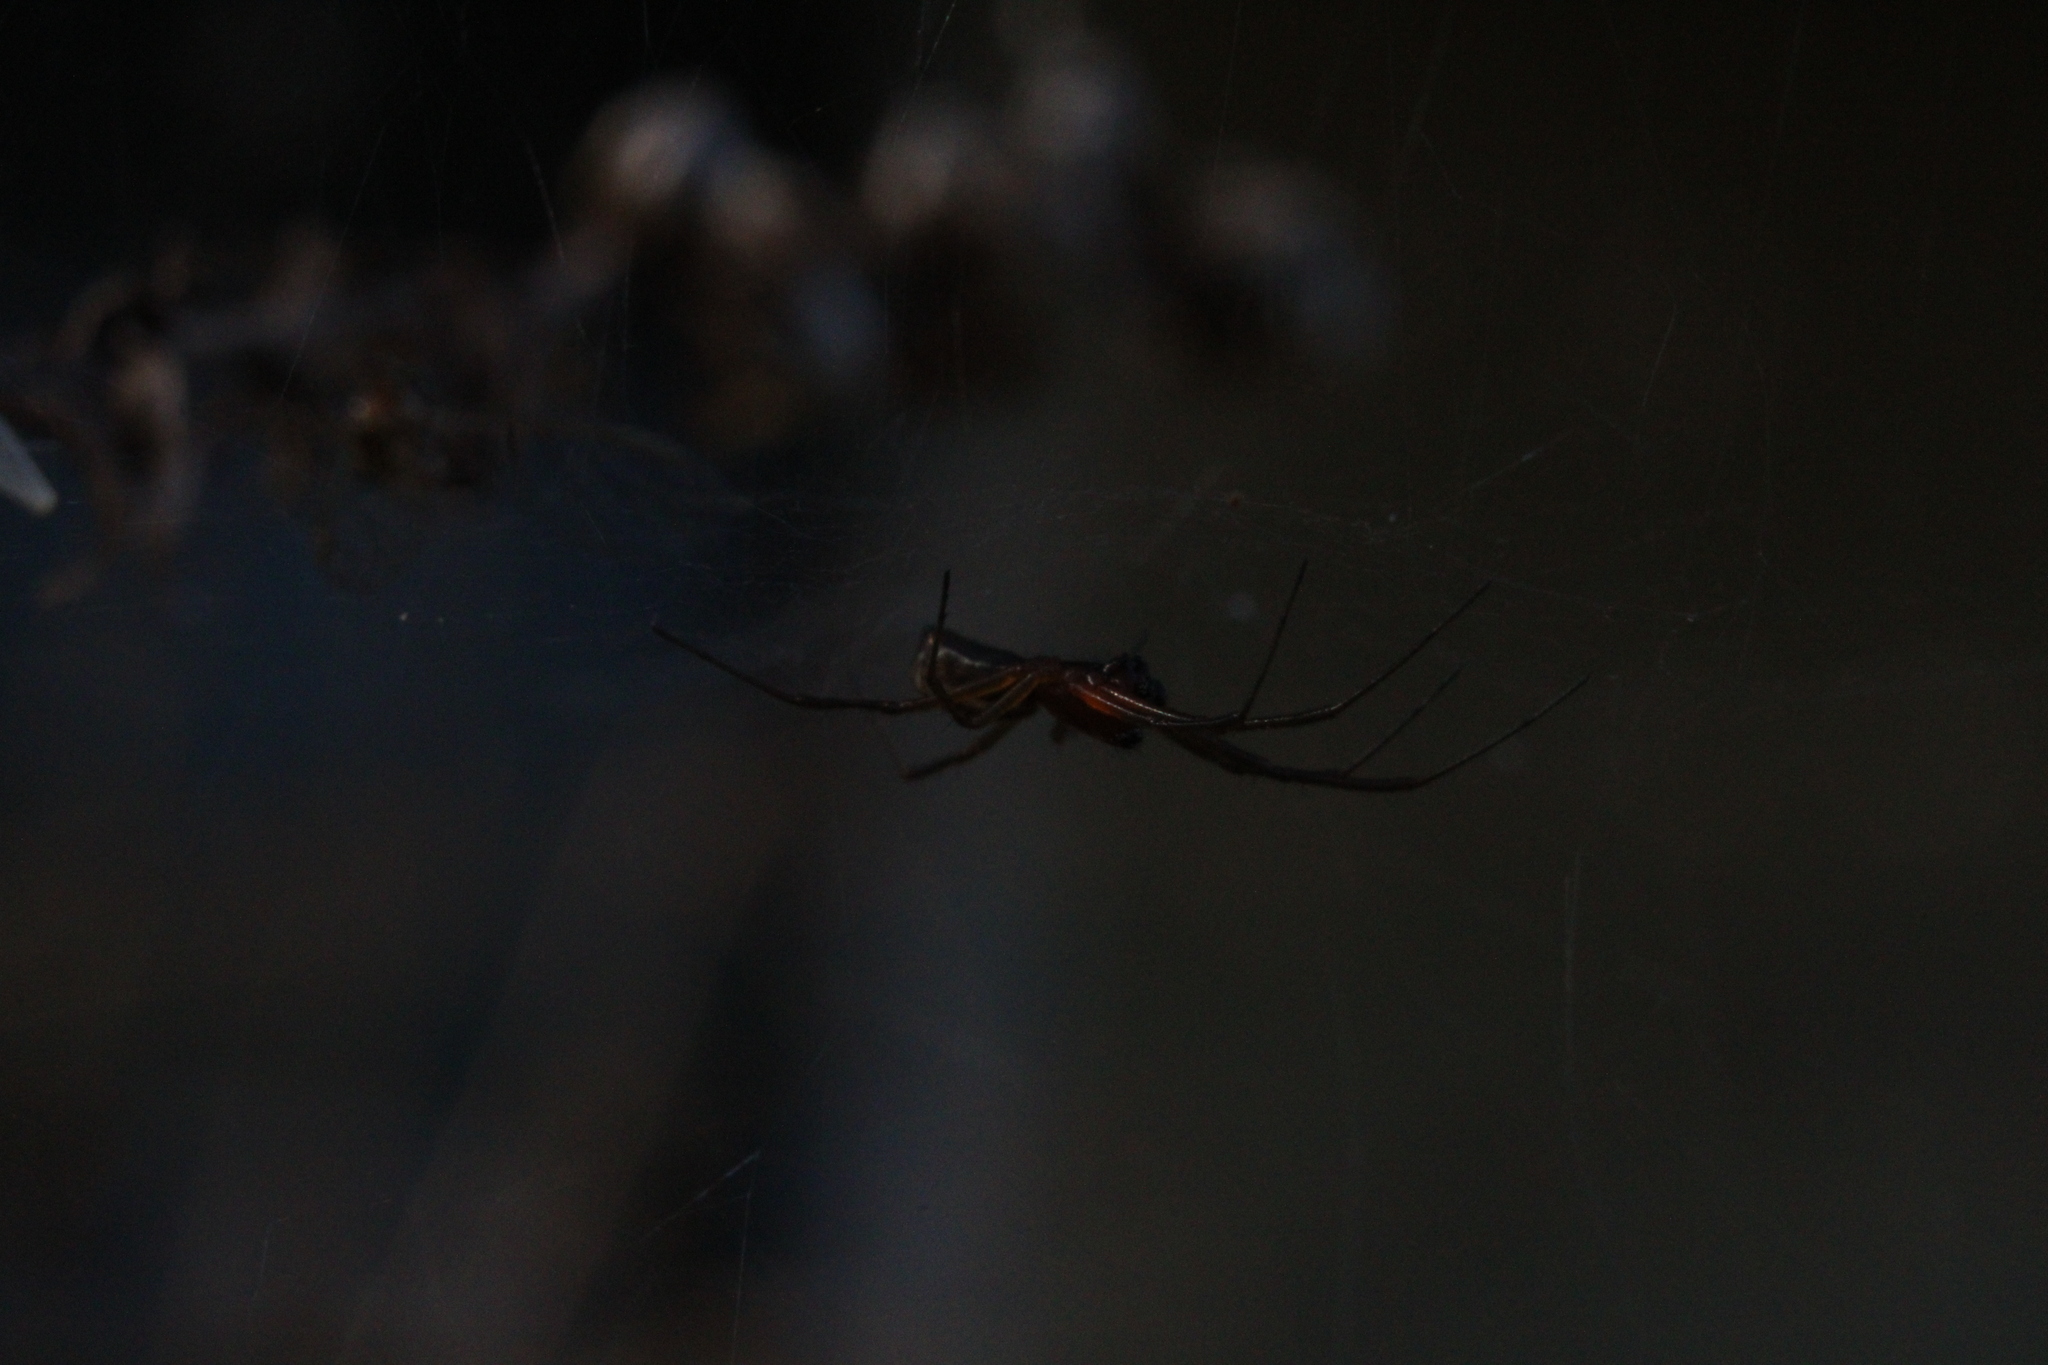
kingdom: Animalia
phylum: Arthropoda
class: Arachnida
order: Araneae
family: Linyphiidae
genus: Frontinella
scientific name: Frontinella pyramitela
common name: Bowl-and-doily spider
